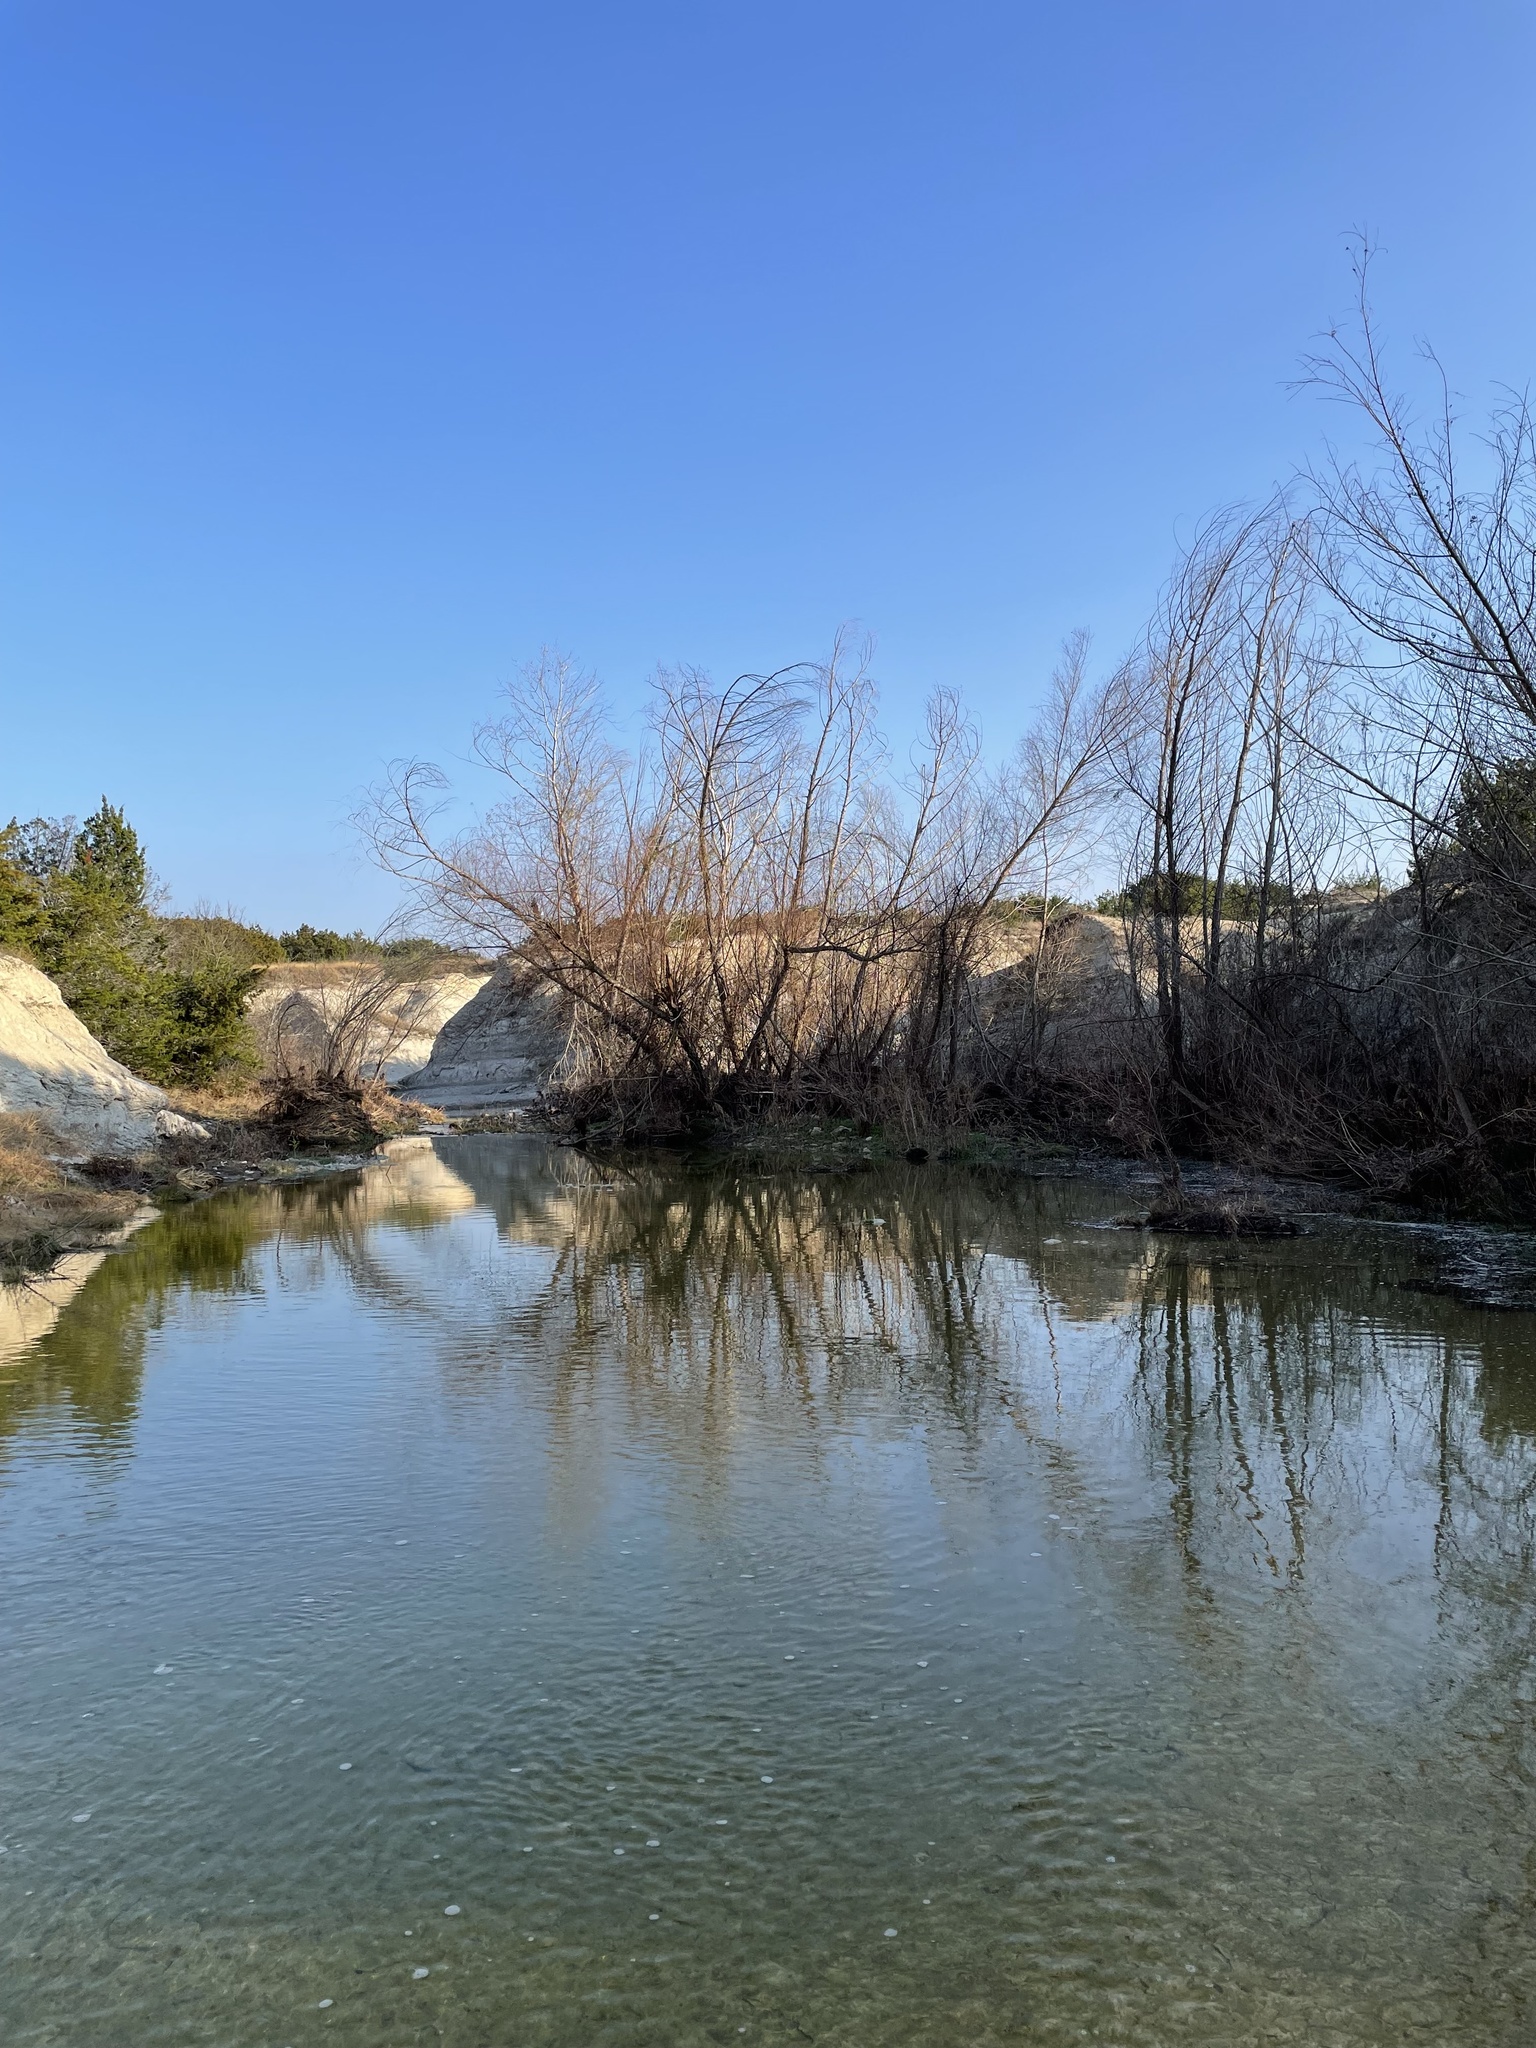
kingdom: Plantae
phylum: Tracheophyta
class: Magnoliopsida
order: Malpighiales
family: Salicaceae
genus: Salix
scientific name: Salix nigra
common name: Black willow
